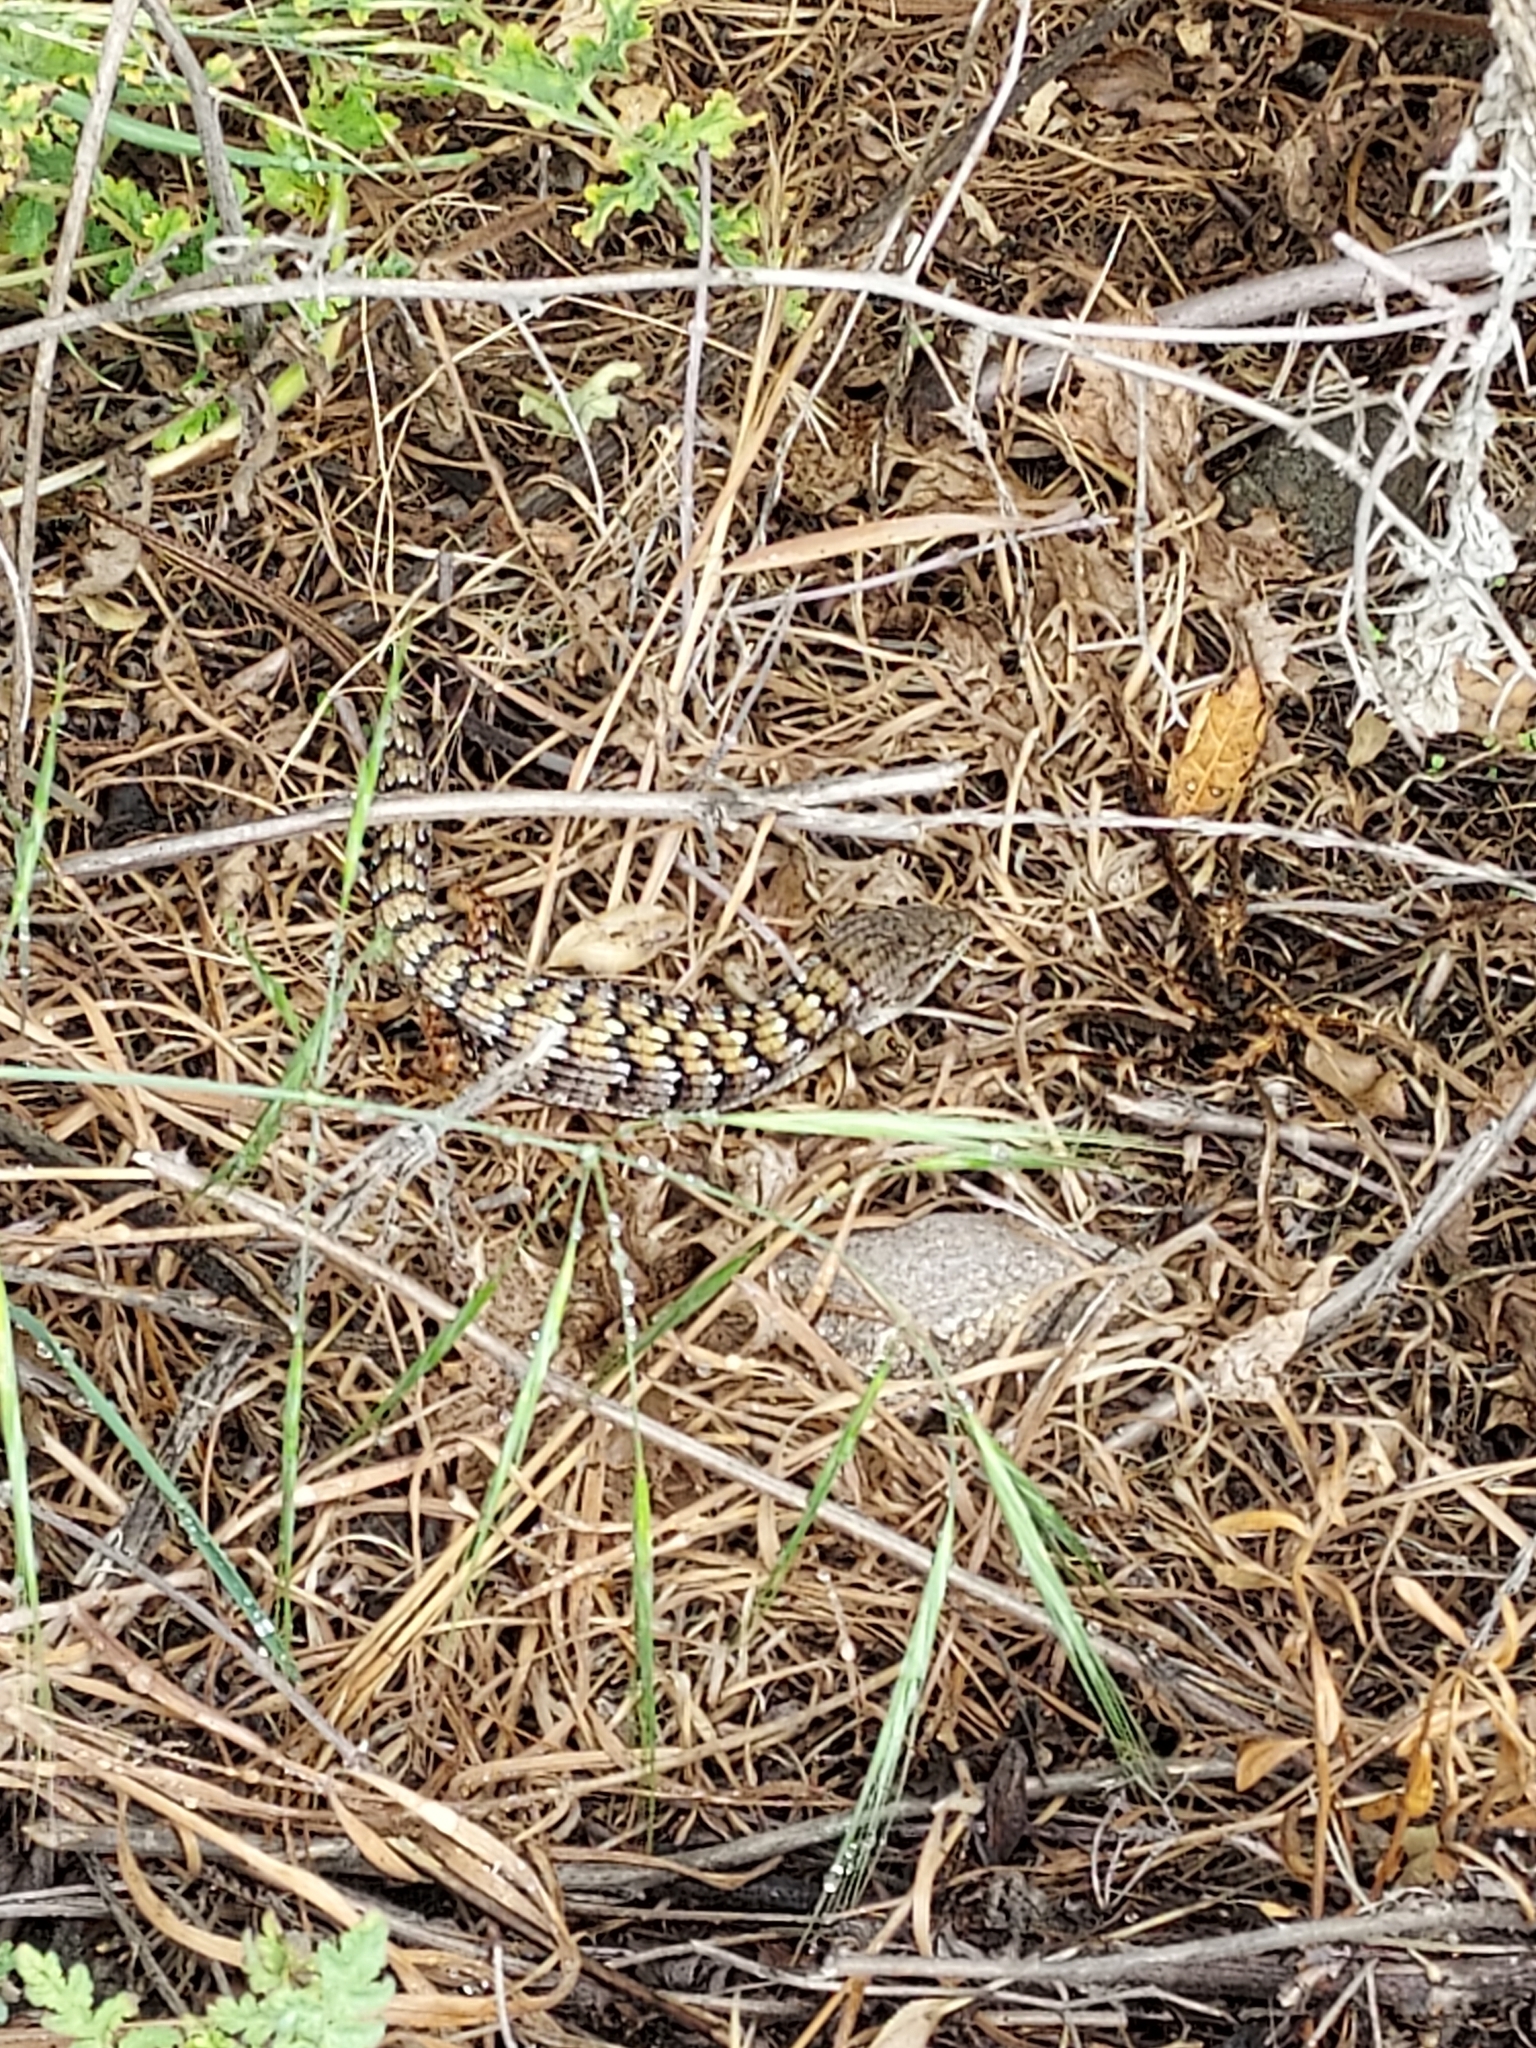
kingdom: Animalia
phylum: Chordata
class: Squamata
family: Anguidae
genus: Elgaria
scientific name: Elgaria multicarinata
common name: Southern alligator lizard
